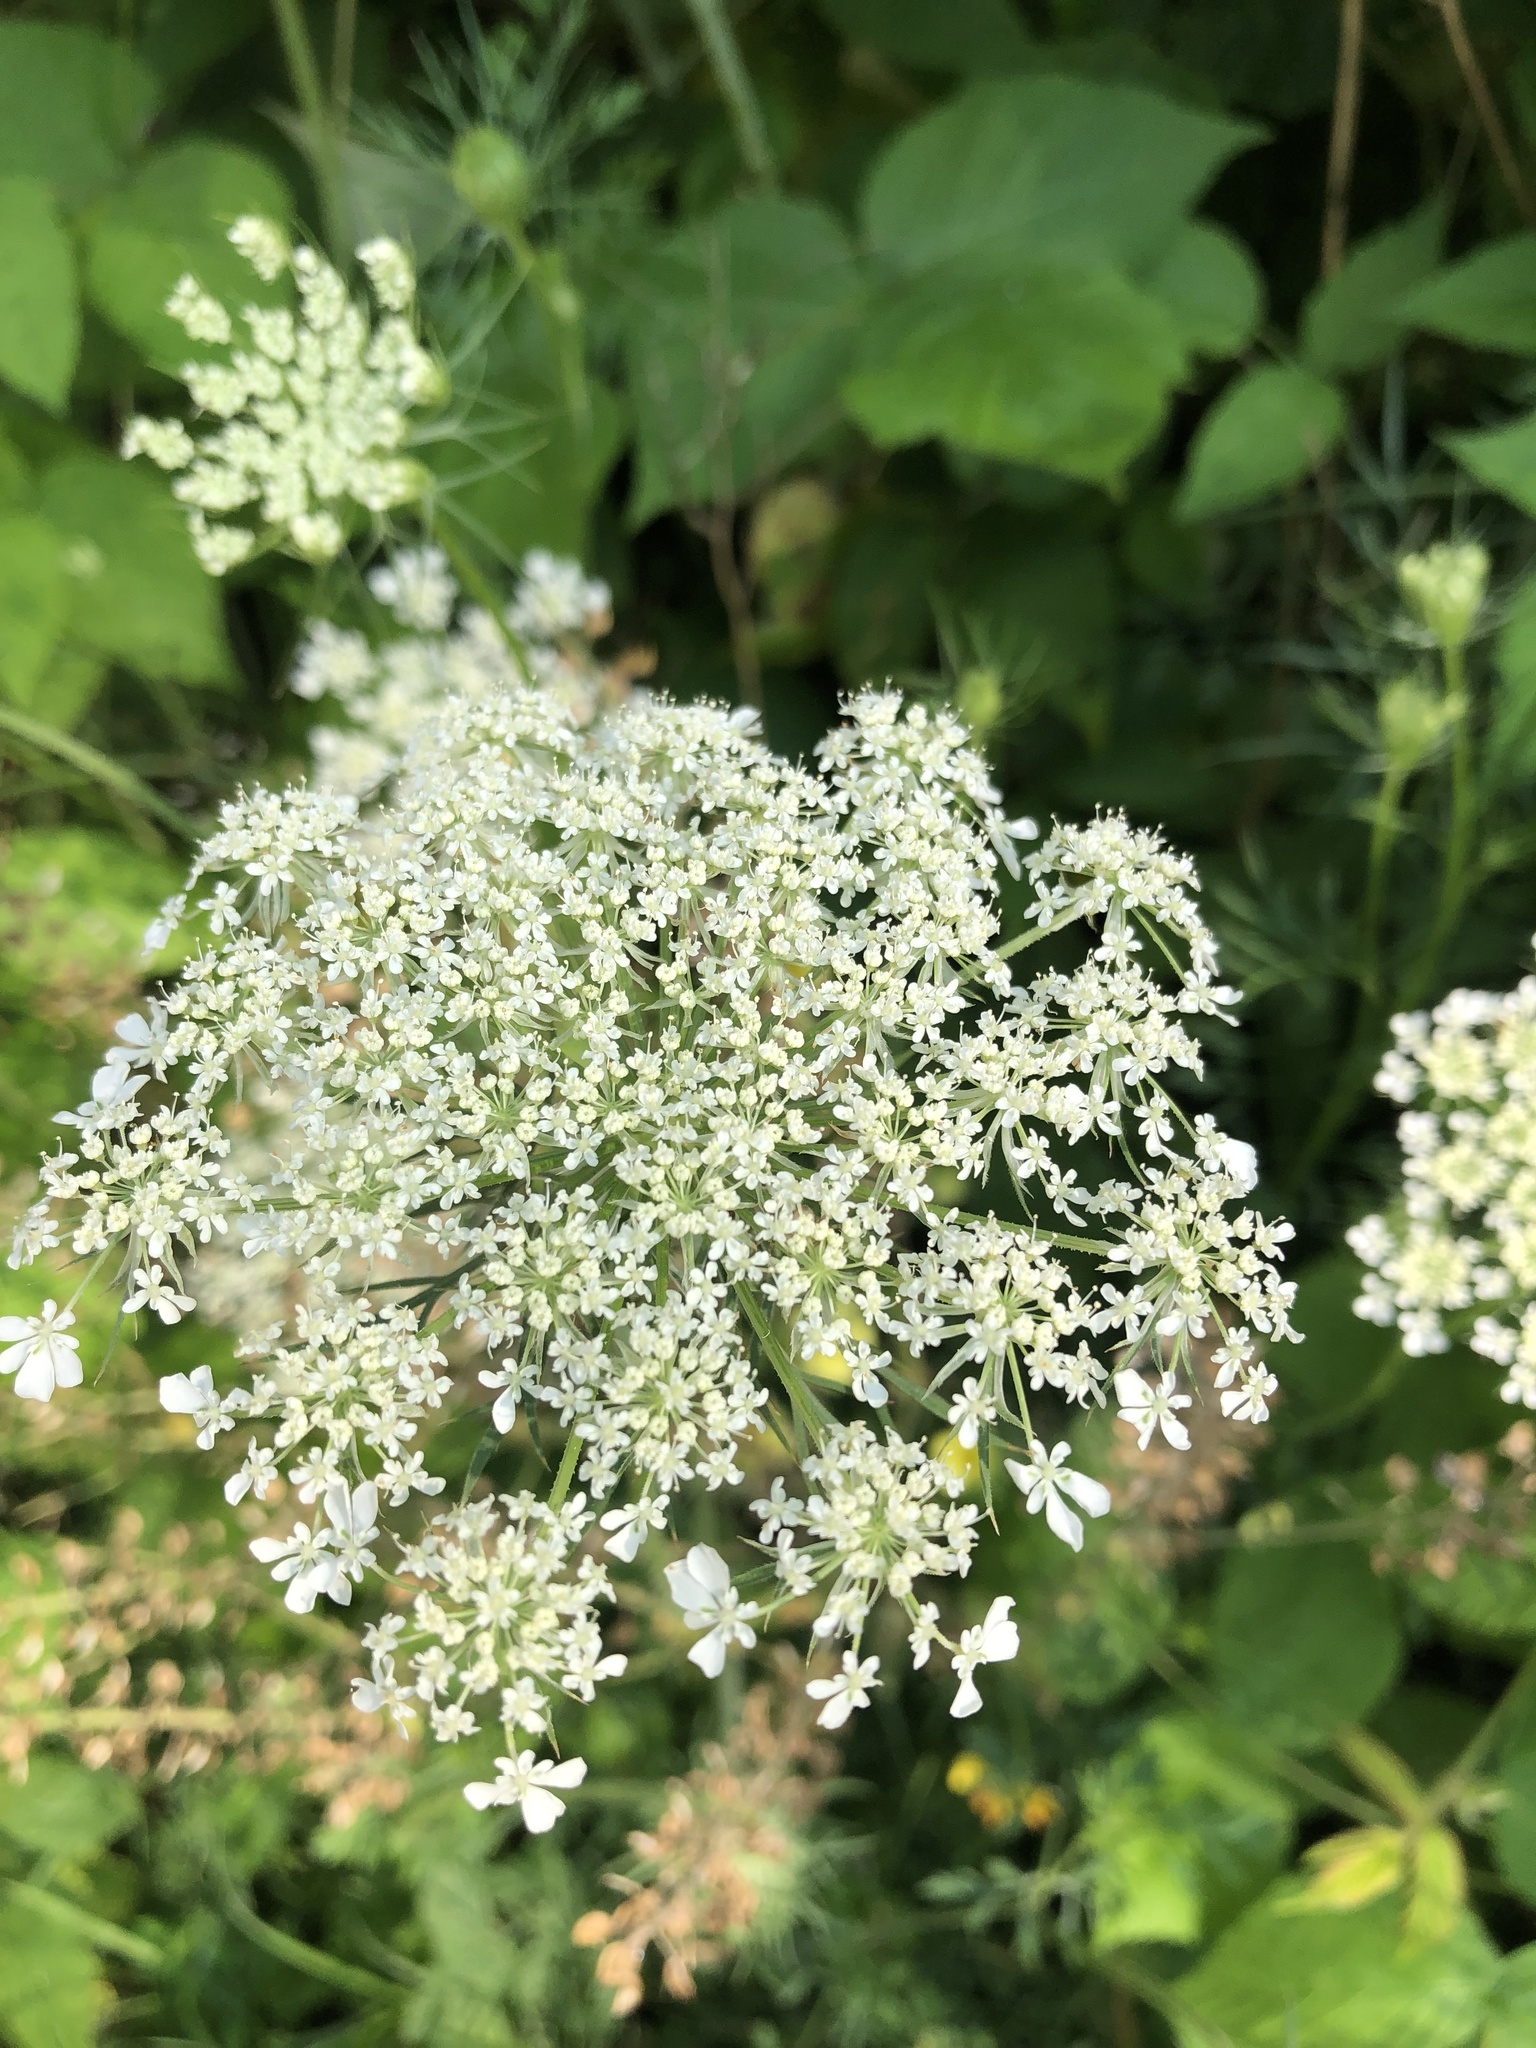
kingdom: Plantae
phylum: Tracheophyta
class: Magnoliopsida
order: Apiales
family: Apiaceae
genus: Daucus
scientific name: Daucus carota
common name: Wild carrot
